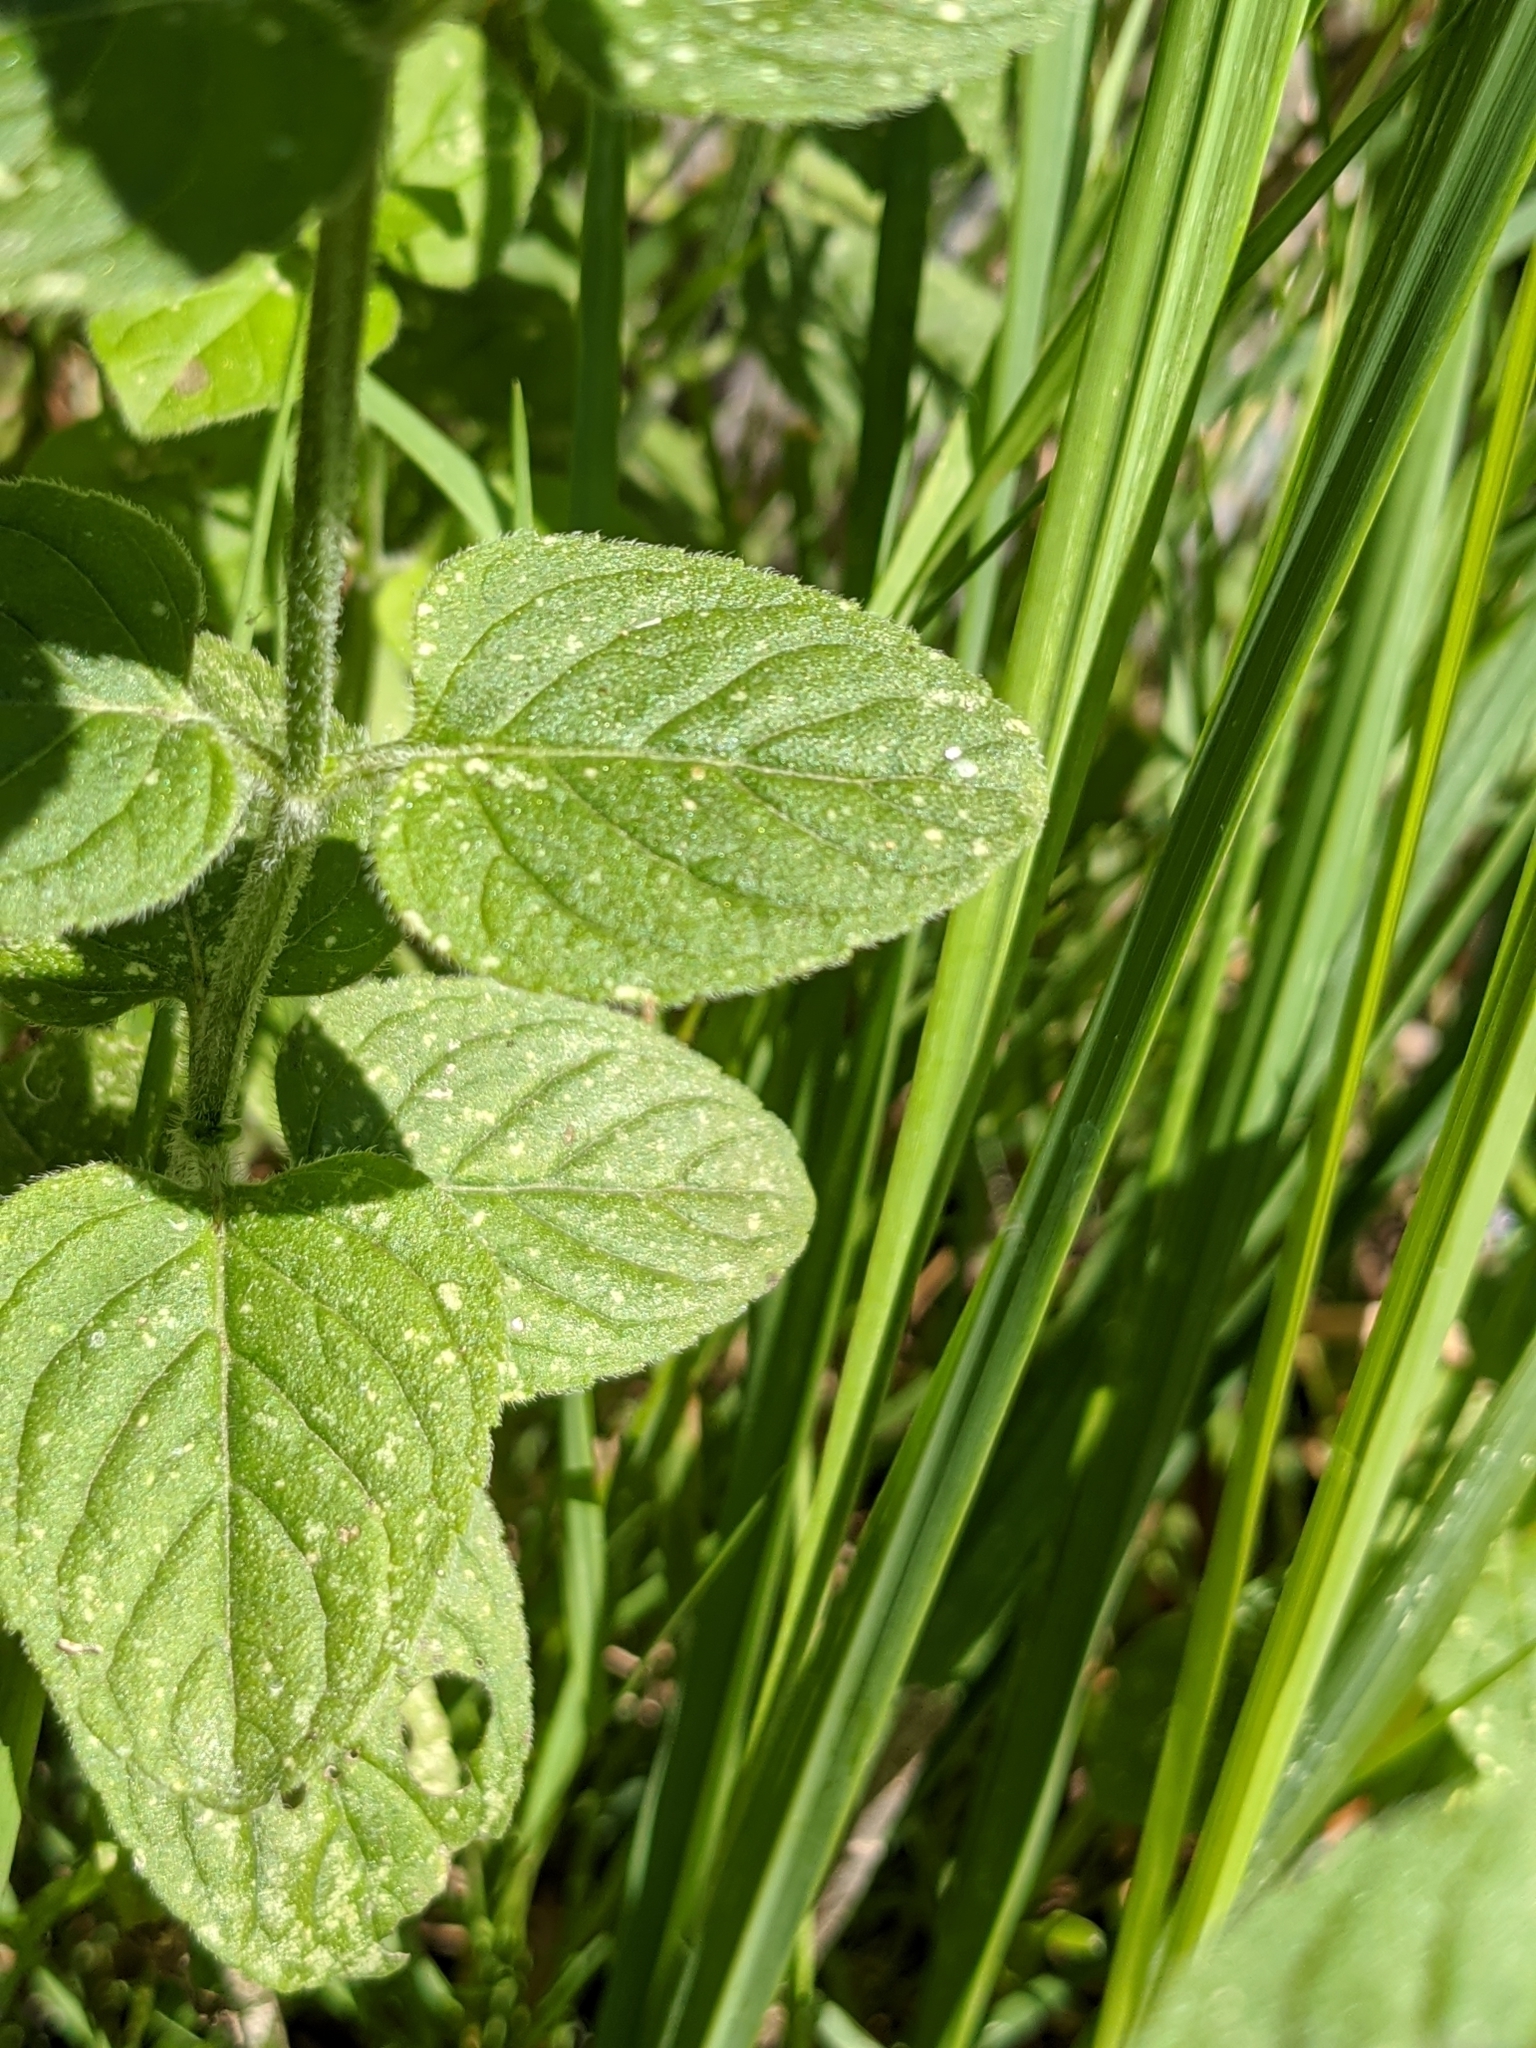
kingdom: Plantae
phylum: Tracheophyta
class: Magnoliopsida
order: Lamiales
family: Lamiaceae
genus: Mentha
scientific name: Mentha aquatica
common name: Water mint
